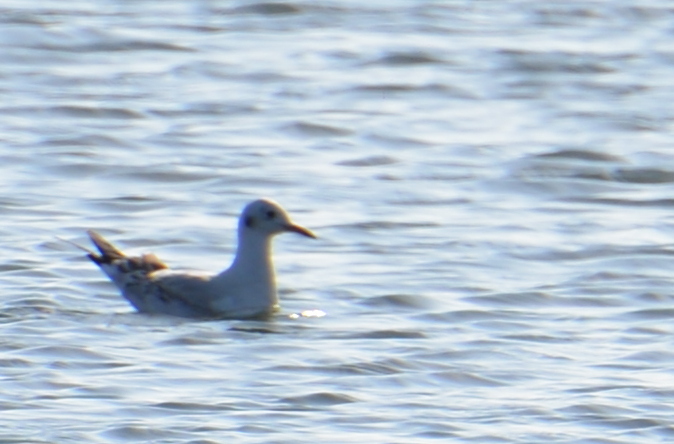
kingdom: Animalia
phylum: Chordata
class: Aves
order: Charadriiformes
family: Laridae
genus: Chroicocephalus
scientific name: Chroicocephalus ridibundus
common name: Black-headed gull
